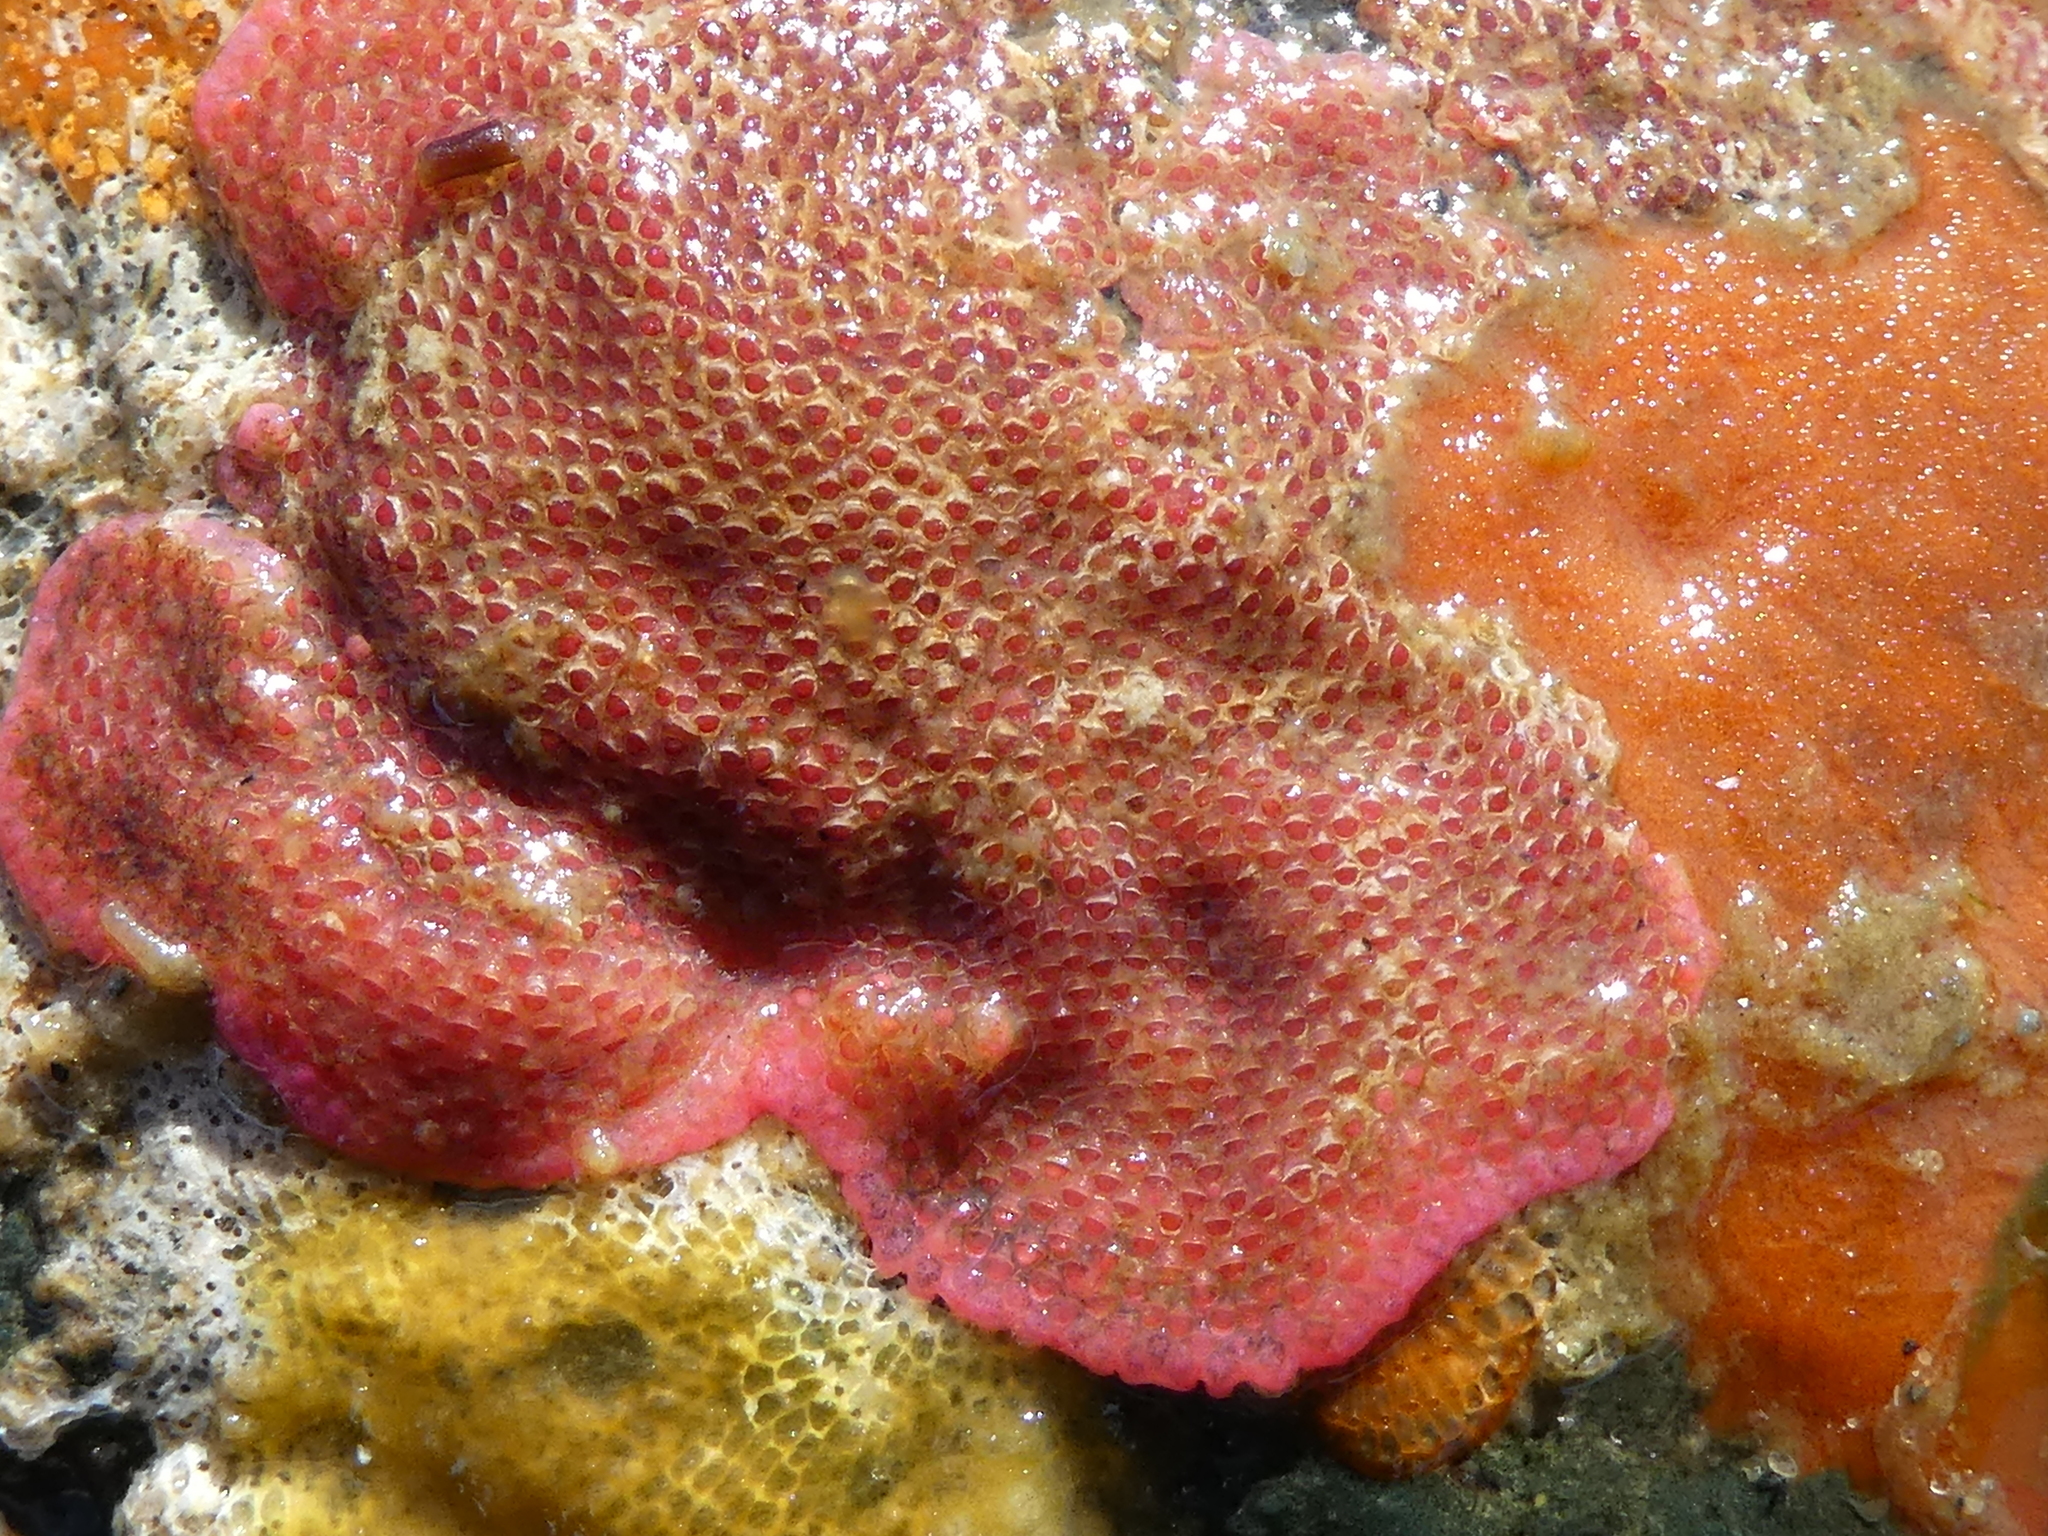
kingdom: Animalia
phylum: Bryozoa
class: Gymnolaemata
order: Cheilostomatida
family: Eurystomellidae
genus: Integripelta
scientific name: Integripelta bilabiata
